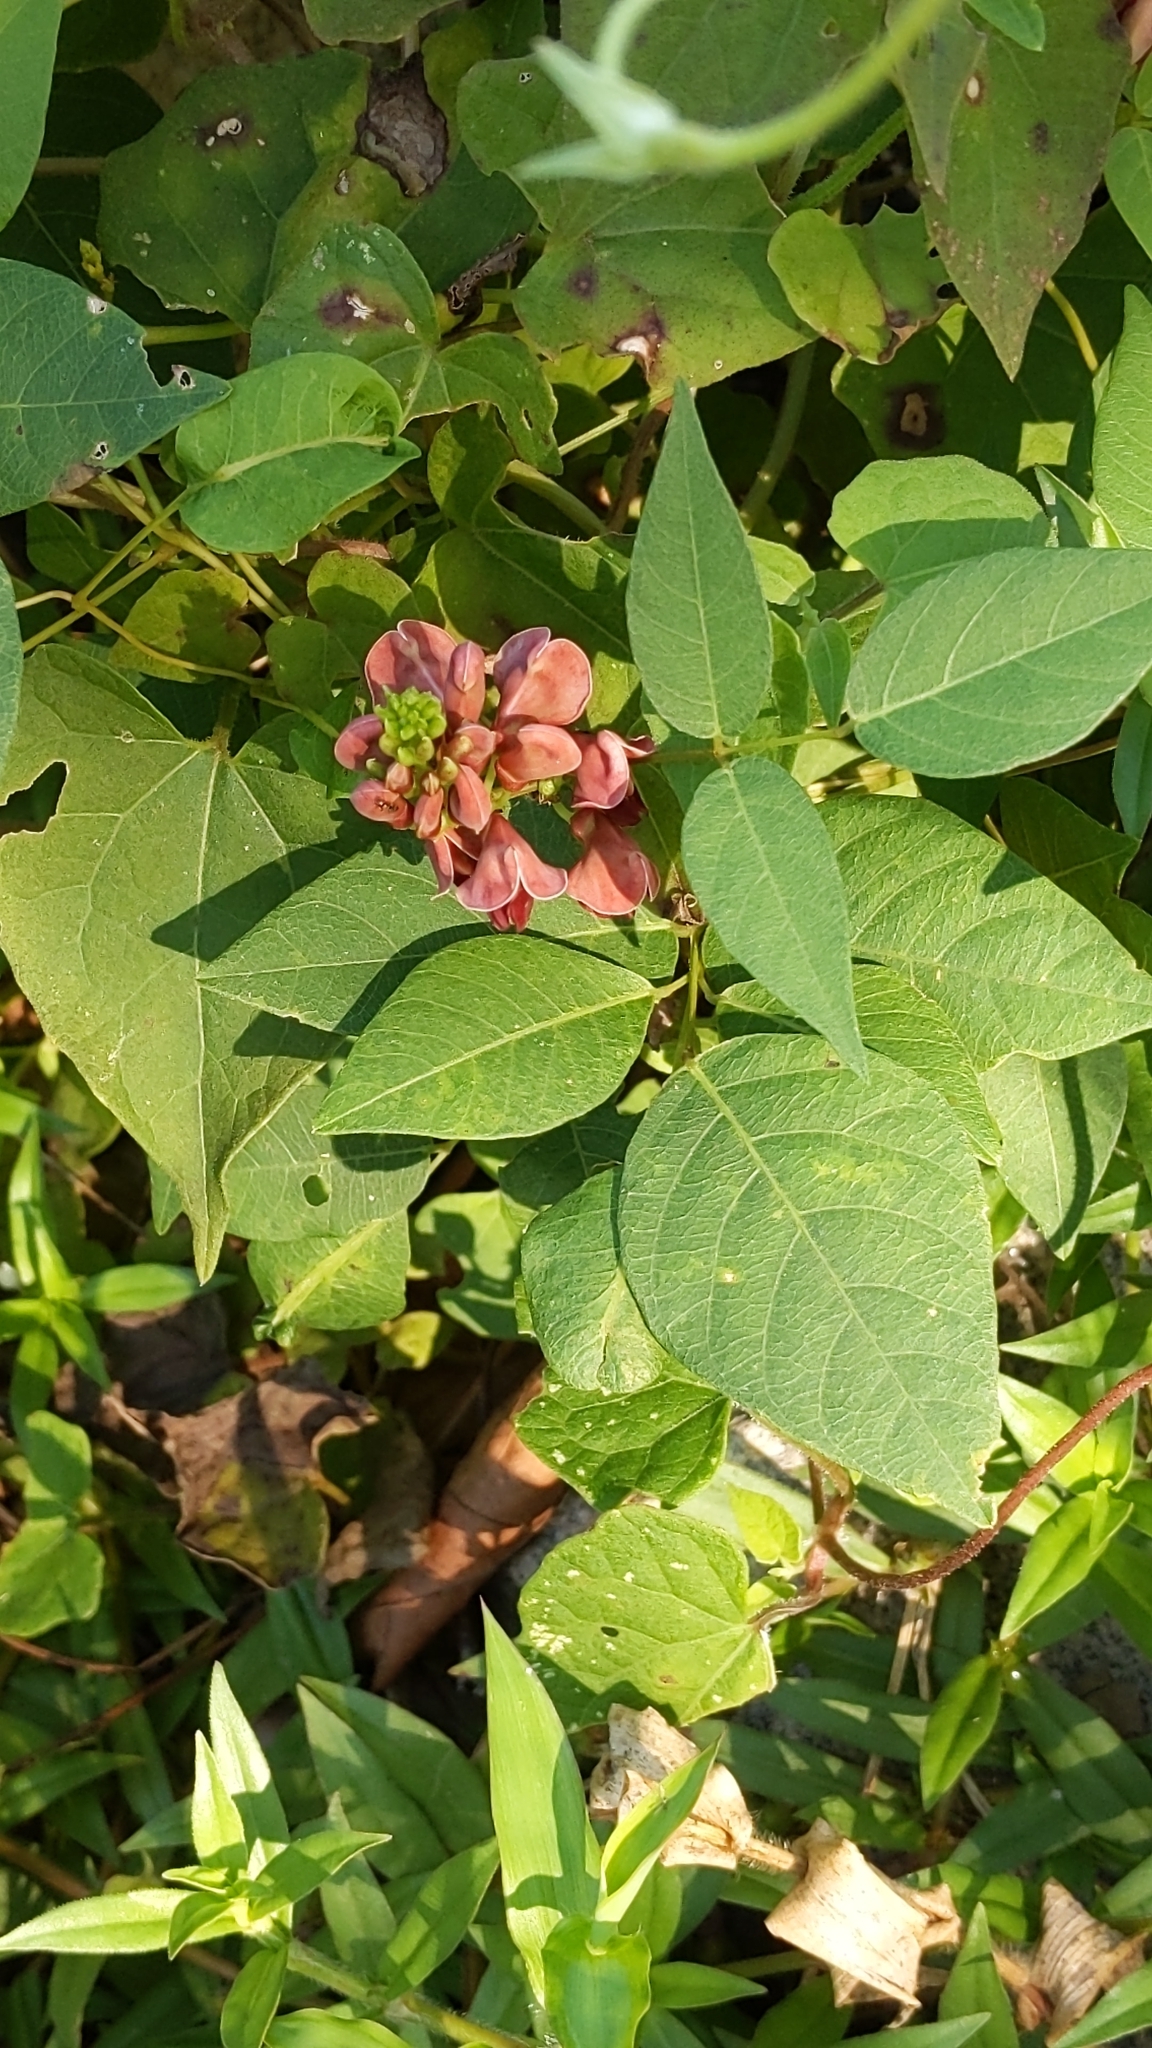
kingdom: Plantae
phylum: Tracheophyta
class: Magnoliopsida
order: Fabales
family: Fabaceae
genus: Apios
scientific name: Apios americana
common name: American potato-bean
